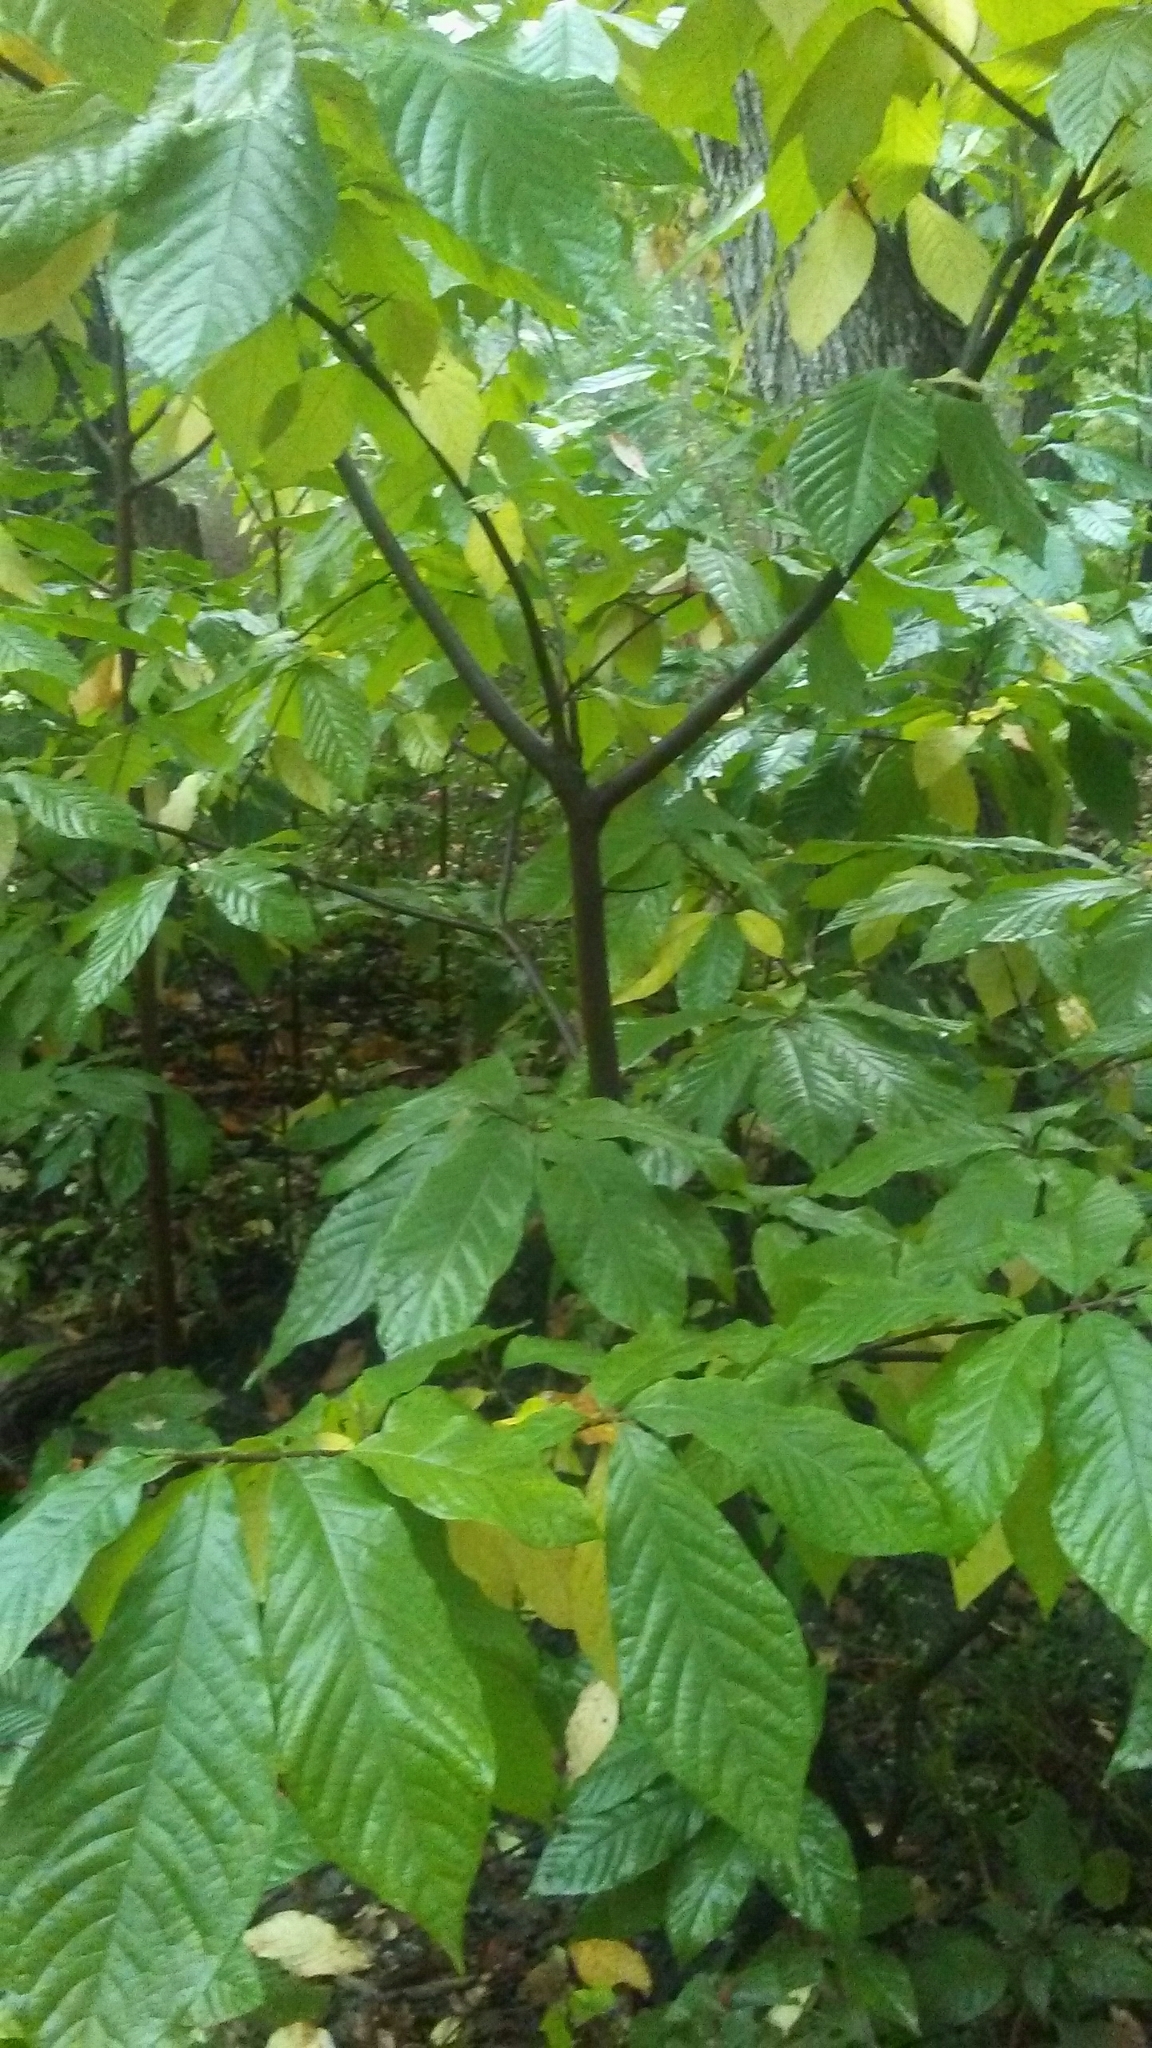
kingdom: Plantae
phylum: Tracheophyta
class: Magnoliopsida
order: Magnoliales
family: Annonaceae
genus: Asimina
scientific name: Asimina triloba
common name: Dog-banana
